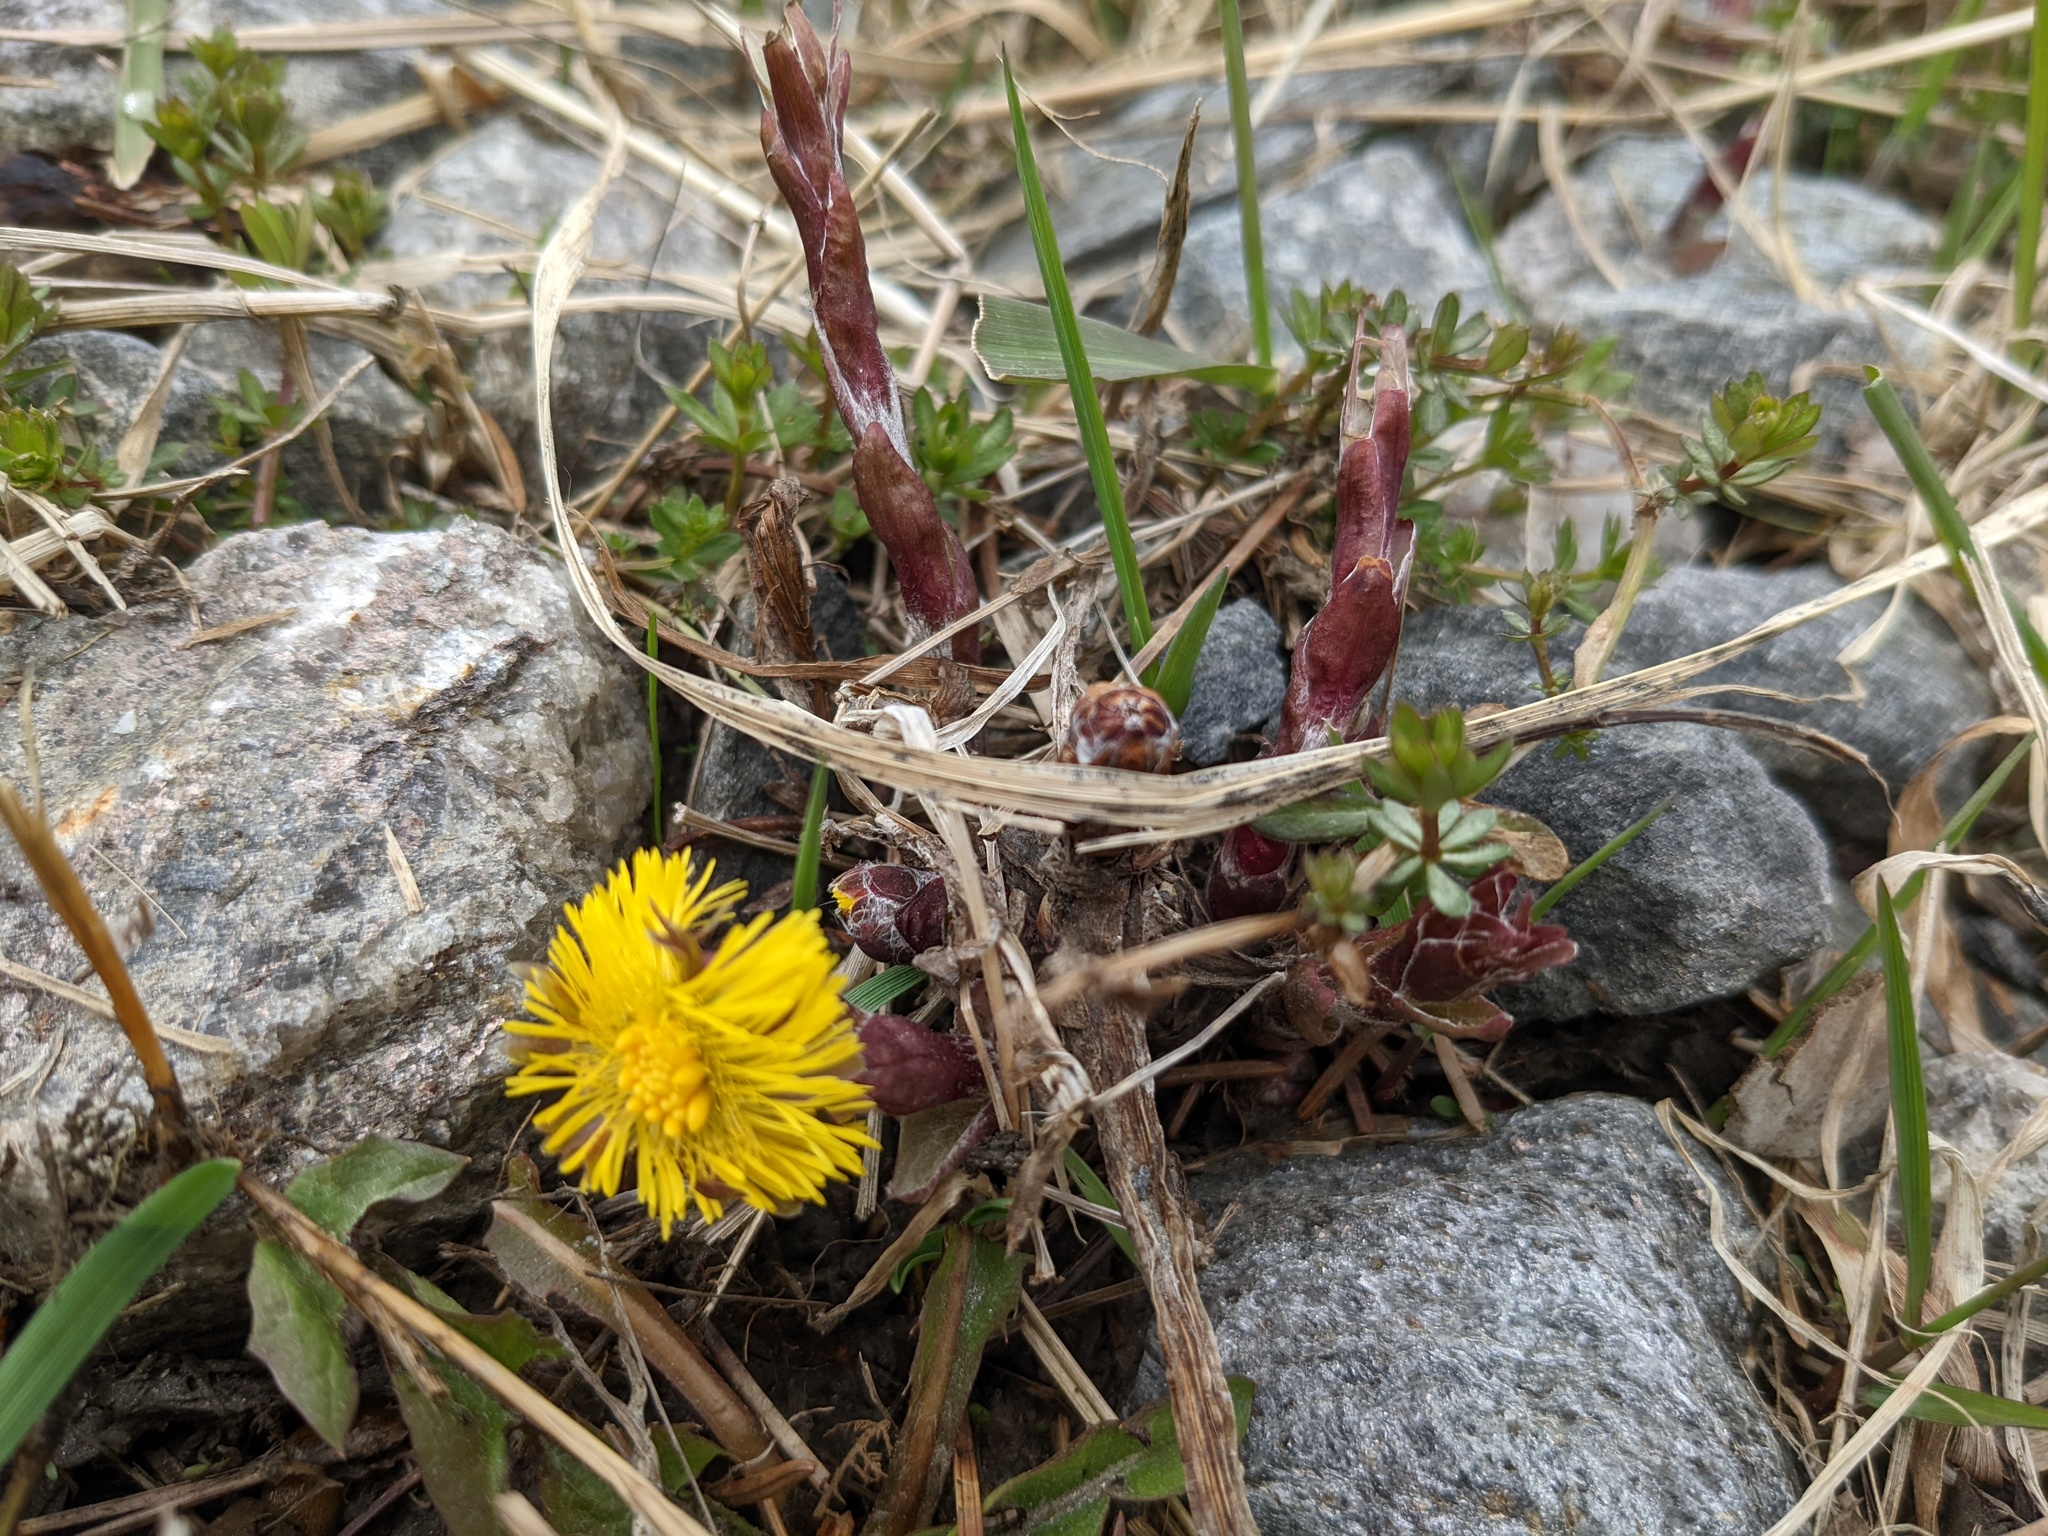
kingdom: Plantae
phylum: Tracheophyta
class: Magnoliopsida
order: Asterales
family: Asteraceae
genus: Tussilago
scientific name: Tussilago farfara
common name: Coltsfoot
